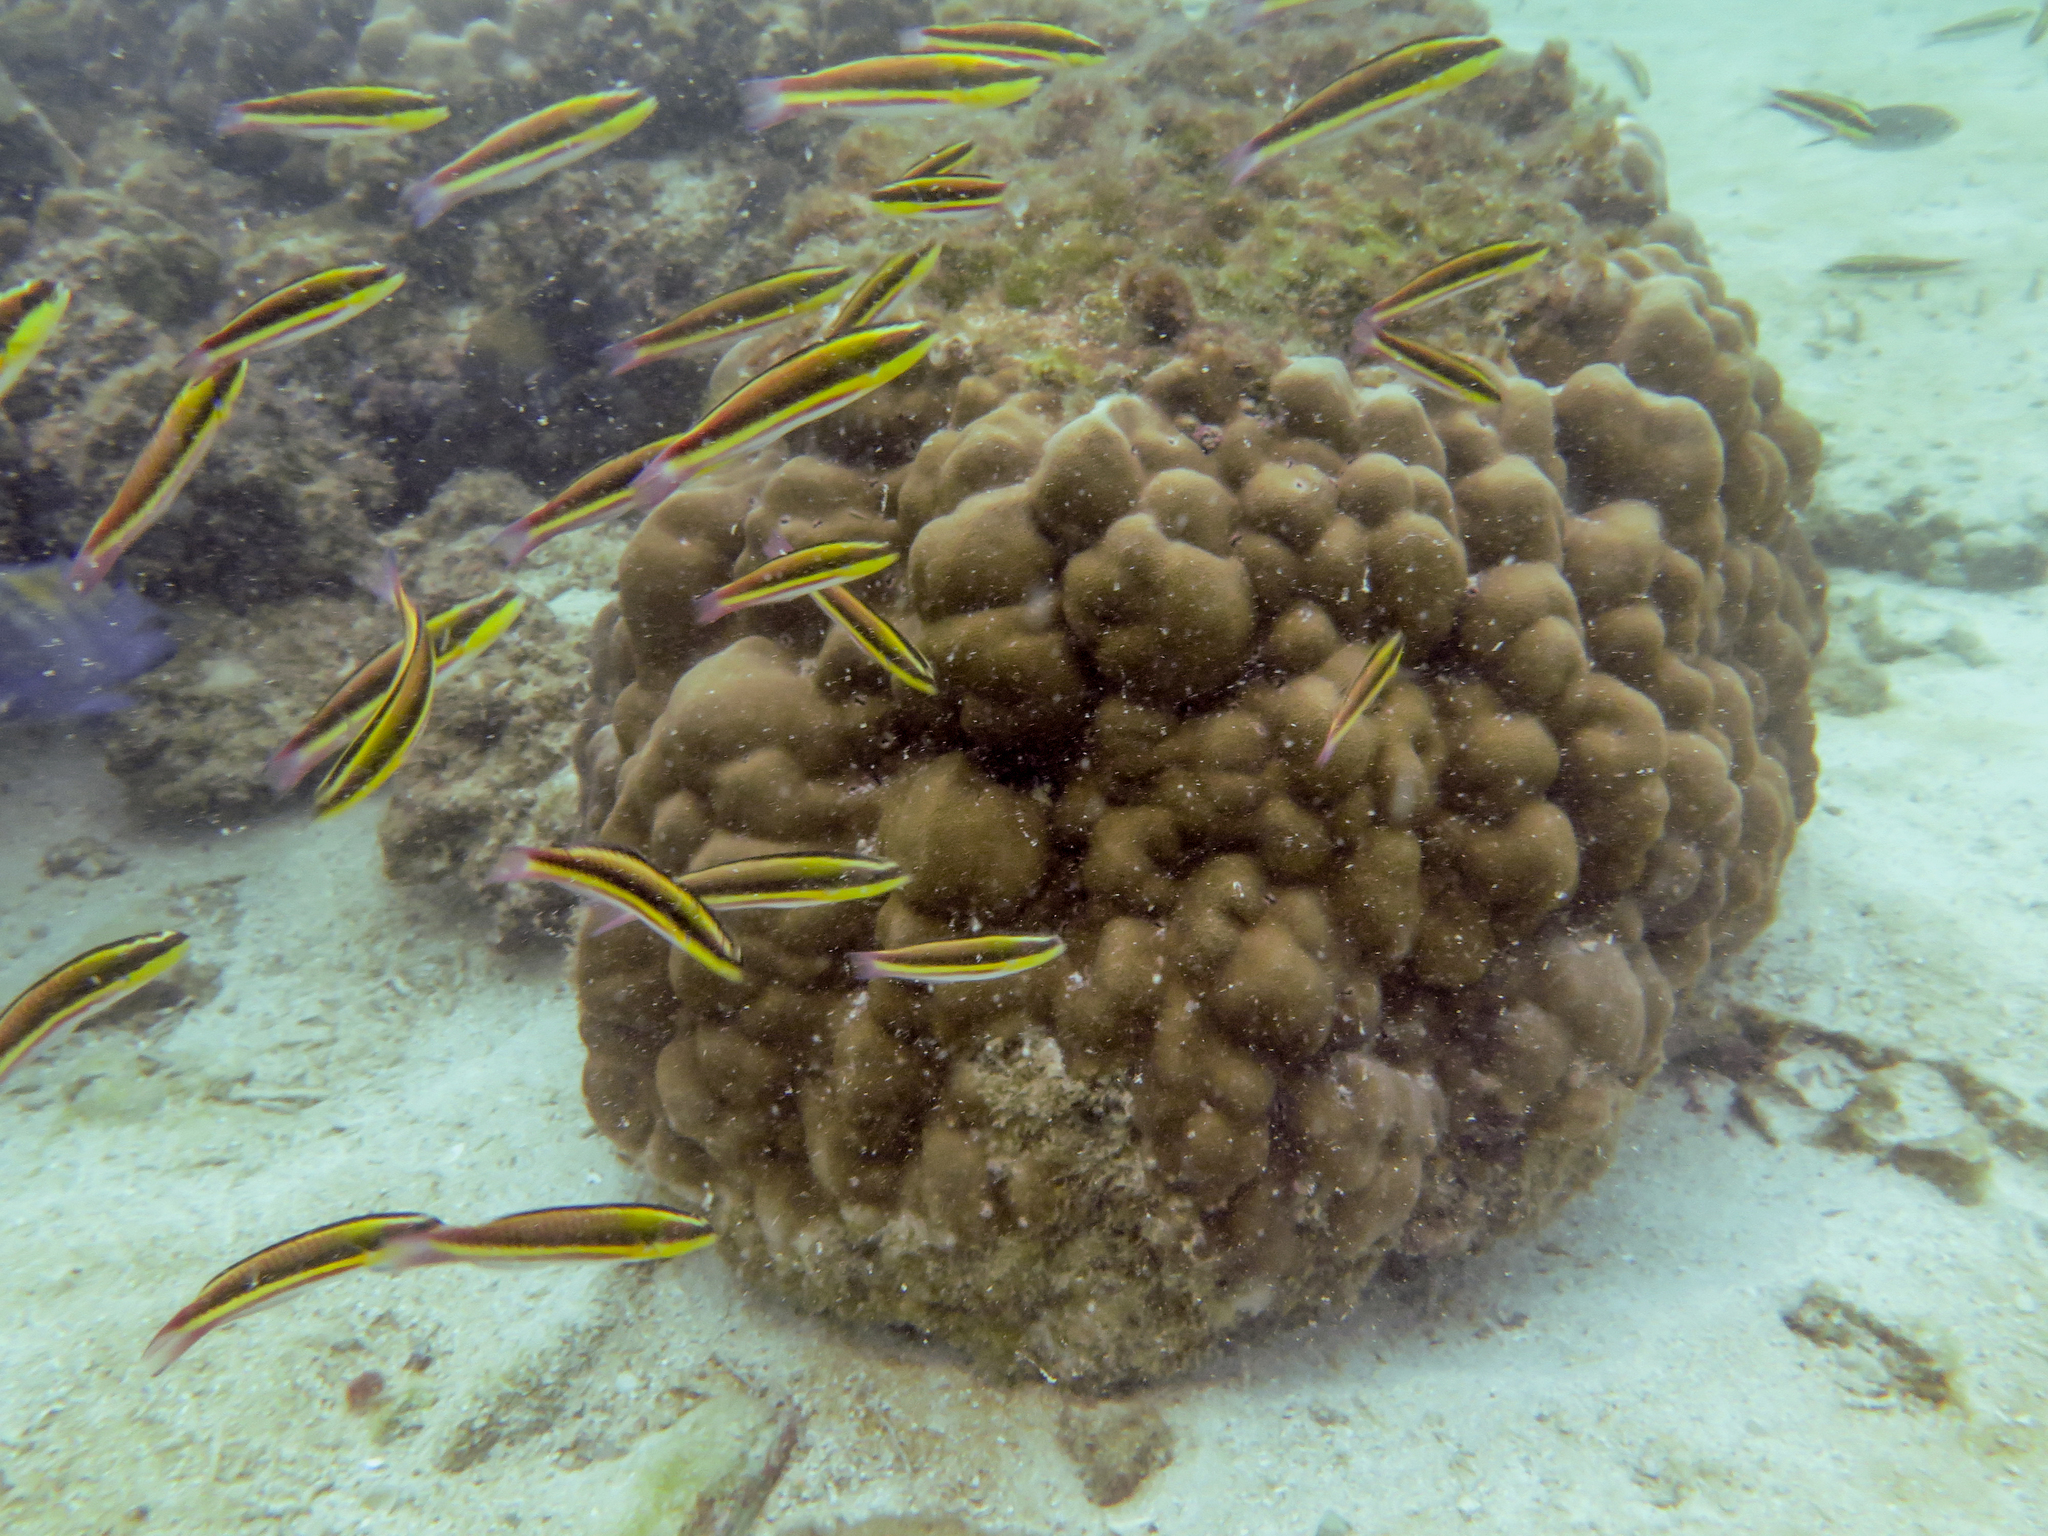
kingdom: Animalia
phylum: Chordata
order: Perciformes
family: Labridae
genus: Thalassoma
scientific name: Thalassoma lucasanum
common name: Cortez rainbow wrasse
